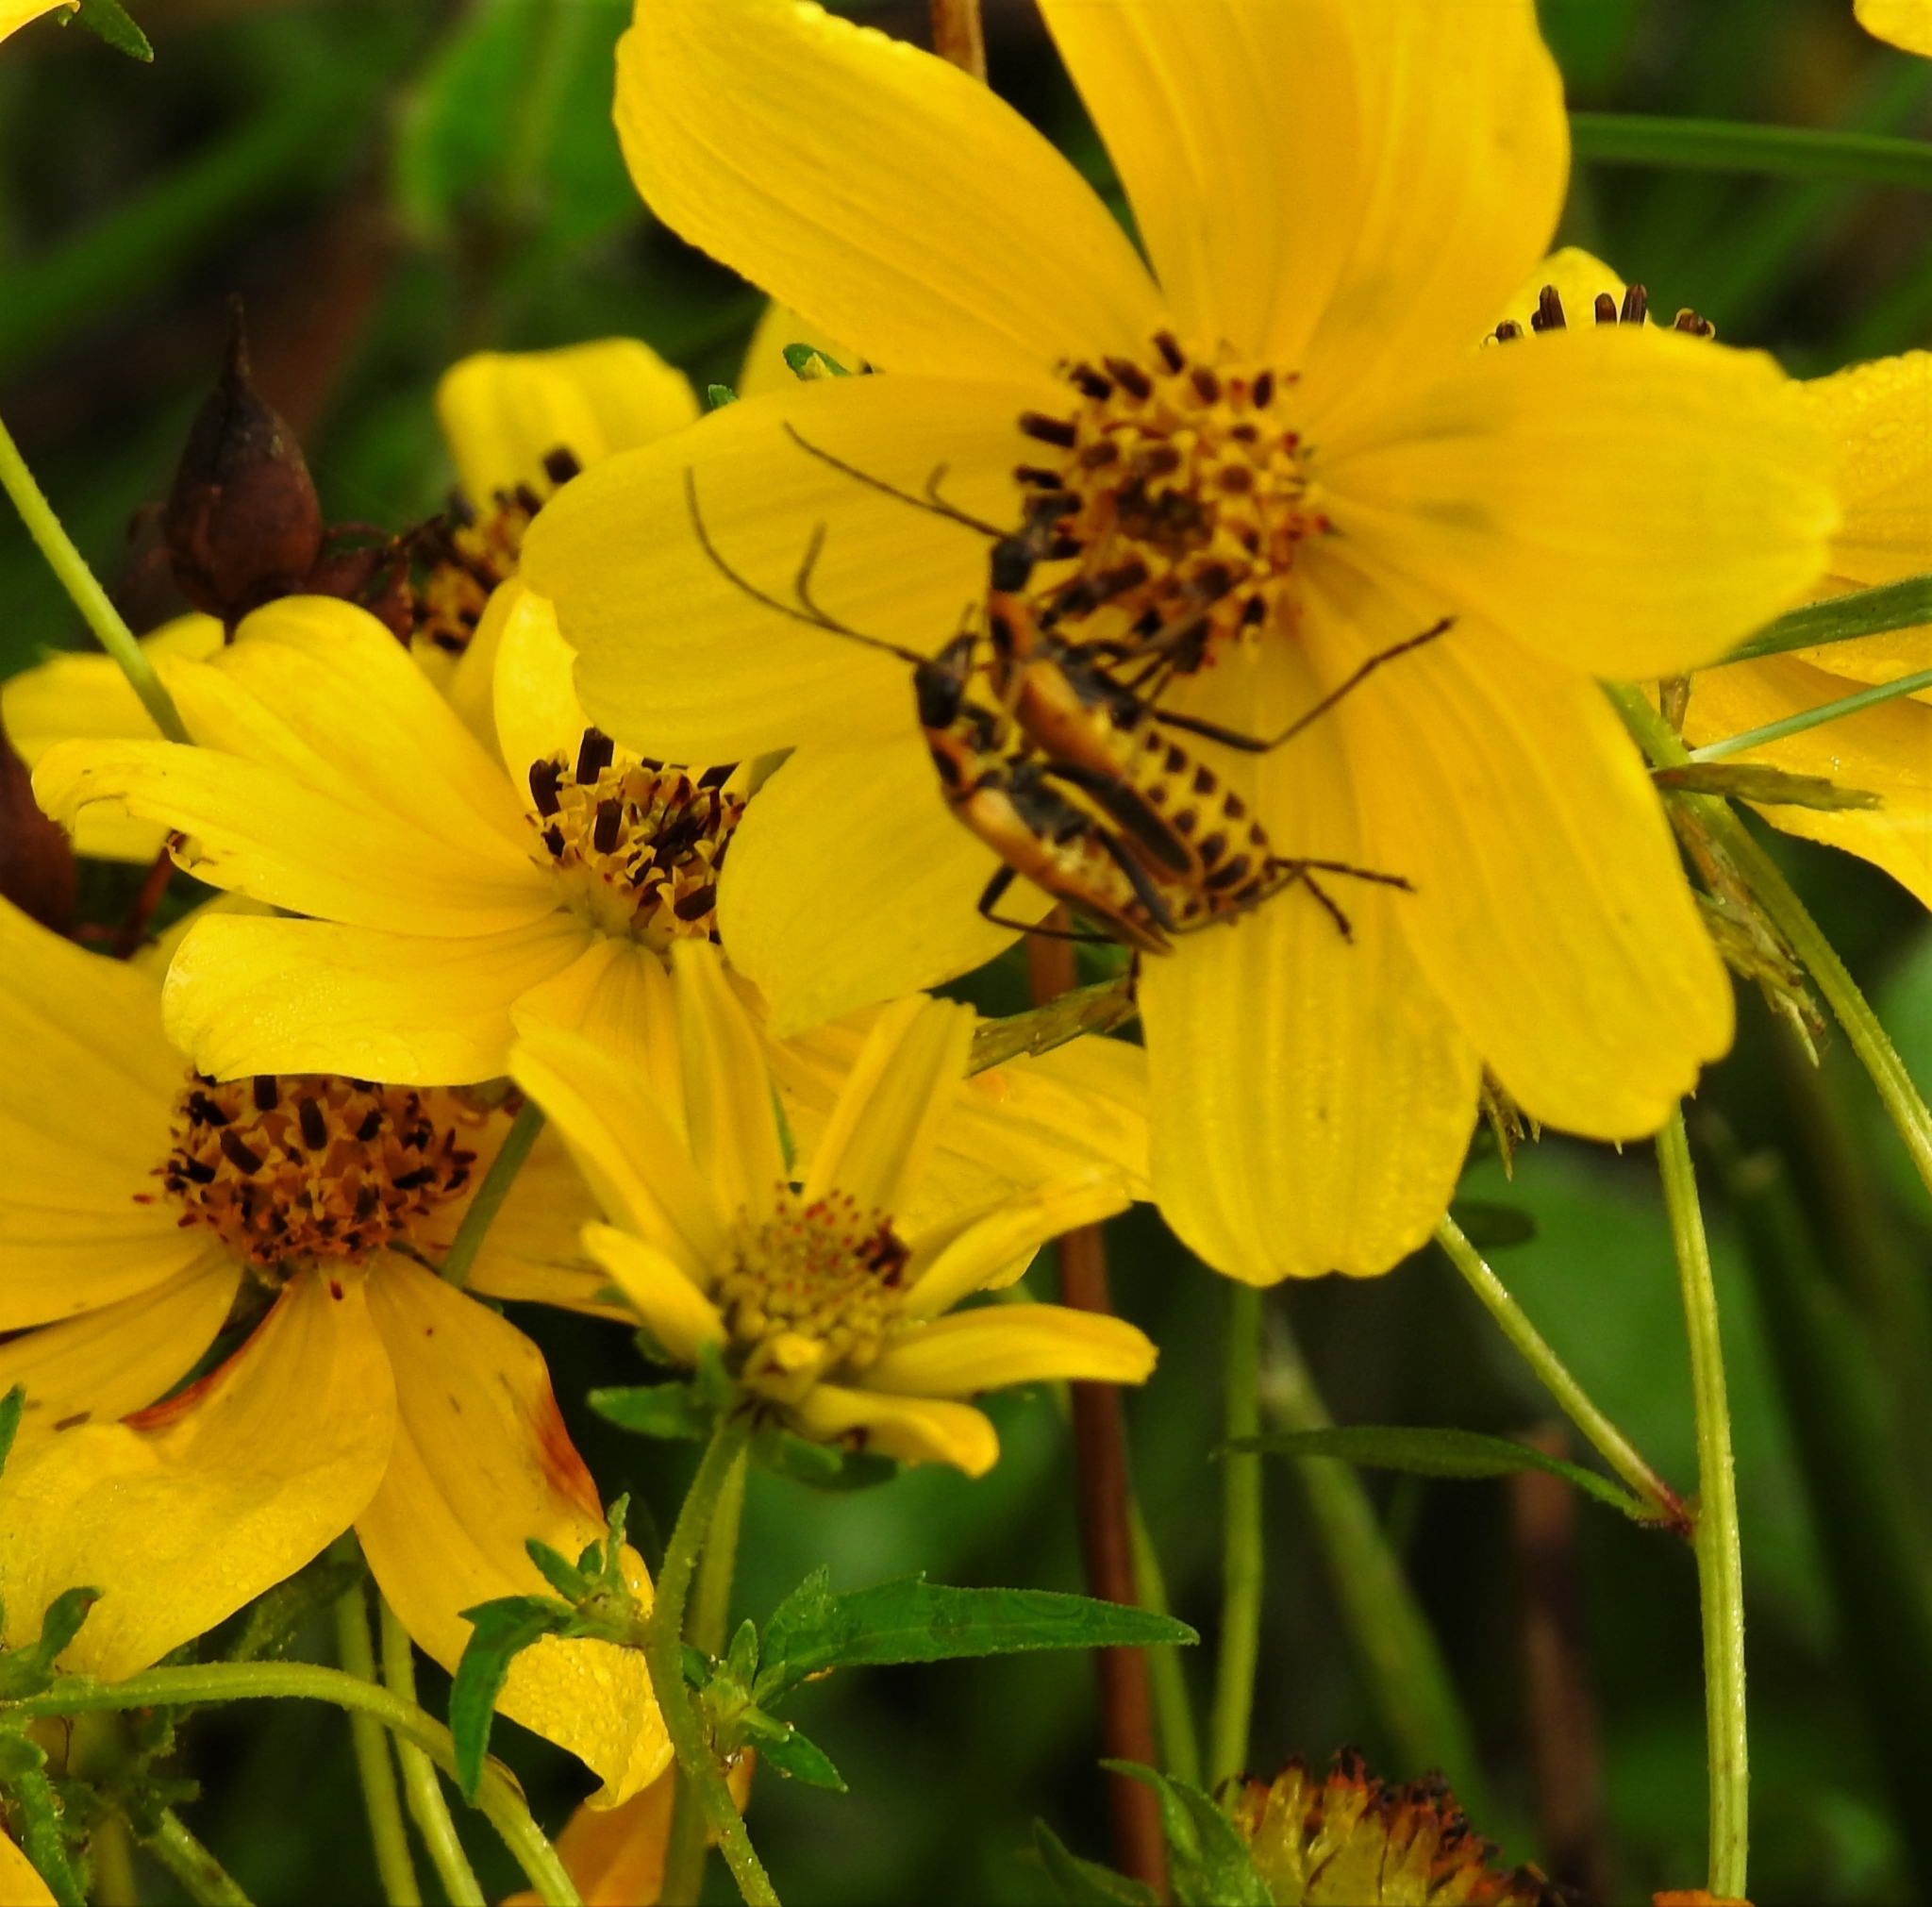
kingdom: Animalia
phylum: Arthropoda
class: Insecta
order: Coleoptera
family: Cantharidae
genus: Chauliognathus
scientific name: Chauliognathus pensylvanicus
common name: Goldenrod soldier beetle
